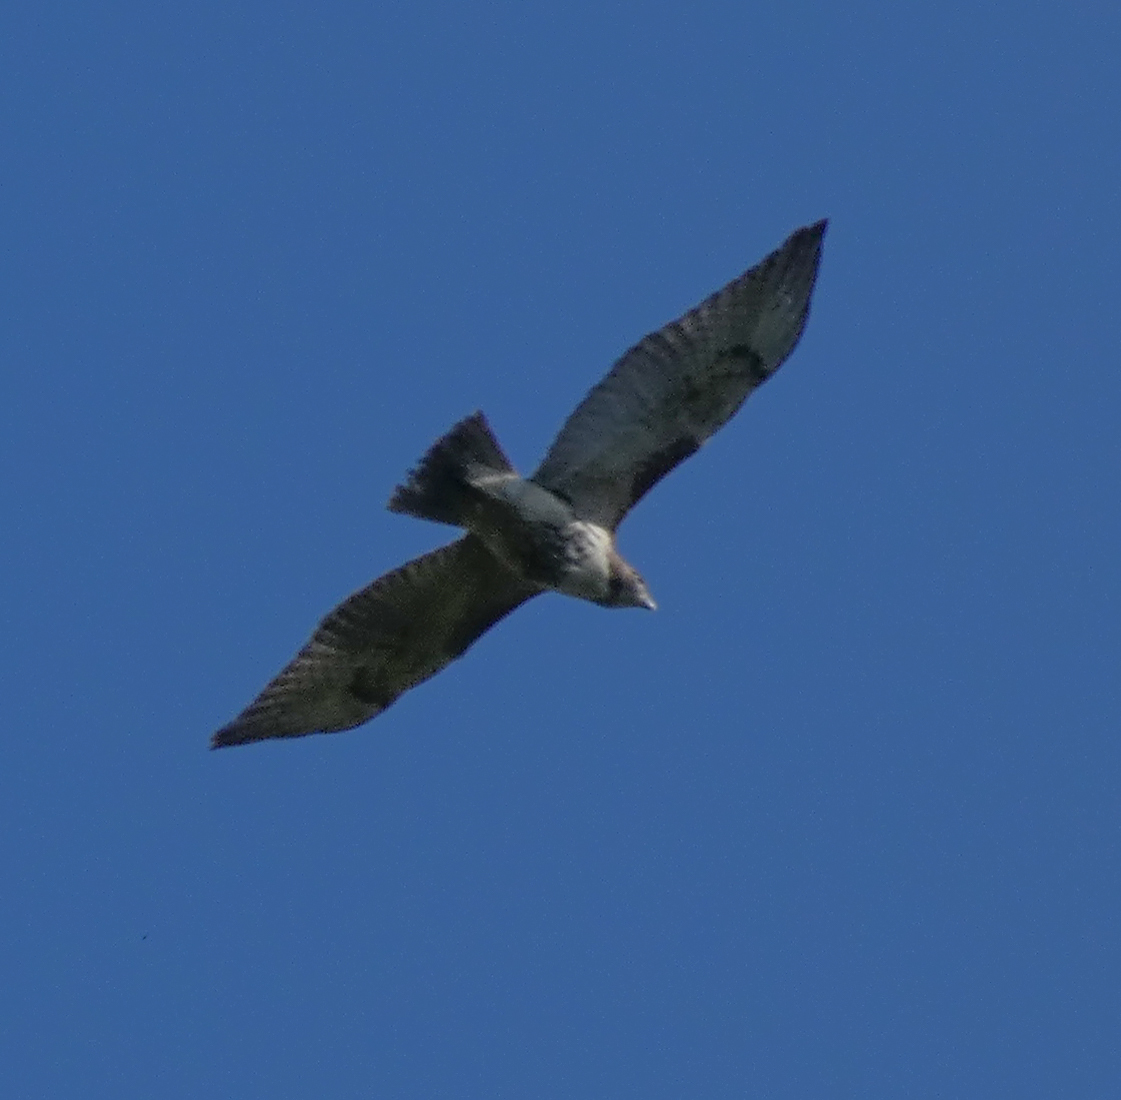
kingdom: Animalia
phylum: Chordata
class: Aves
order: Accipitriformes
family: Accipitridae
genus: Buteo
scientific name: Buteo jamaicensis
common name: Red-tailed hawk
